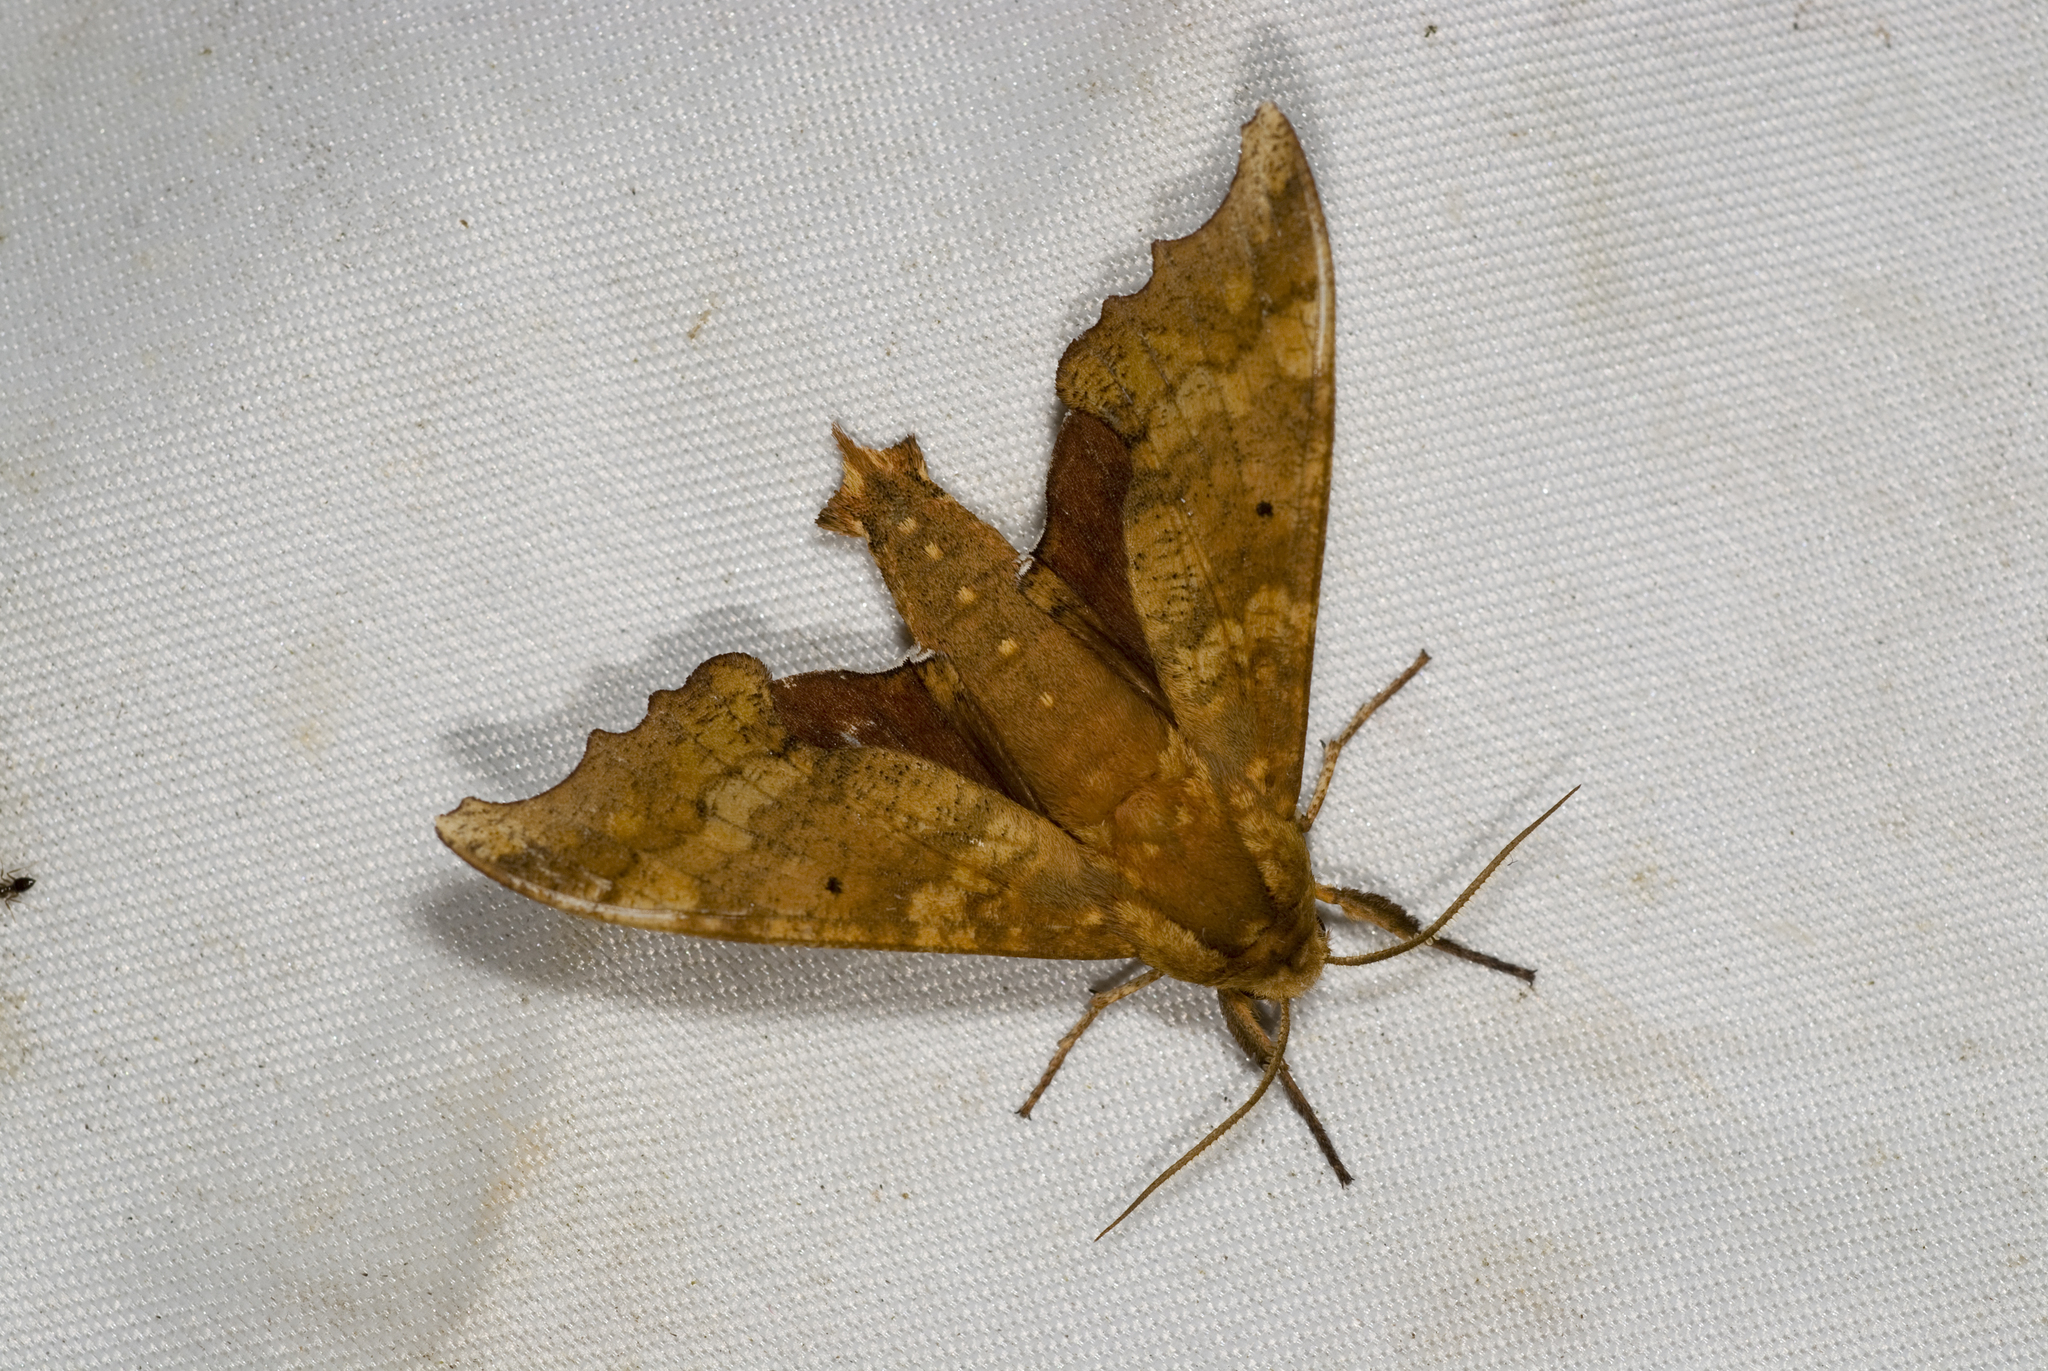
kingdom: Animalia
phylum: Arthropoda
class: Insecta
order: Lepidoptera
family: Sphingidae
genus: Smerinthulus
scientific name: Smerinthulus perversa
